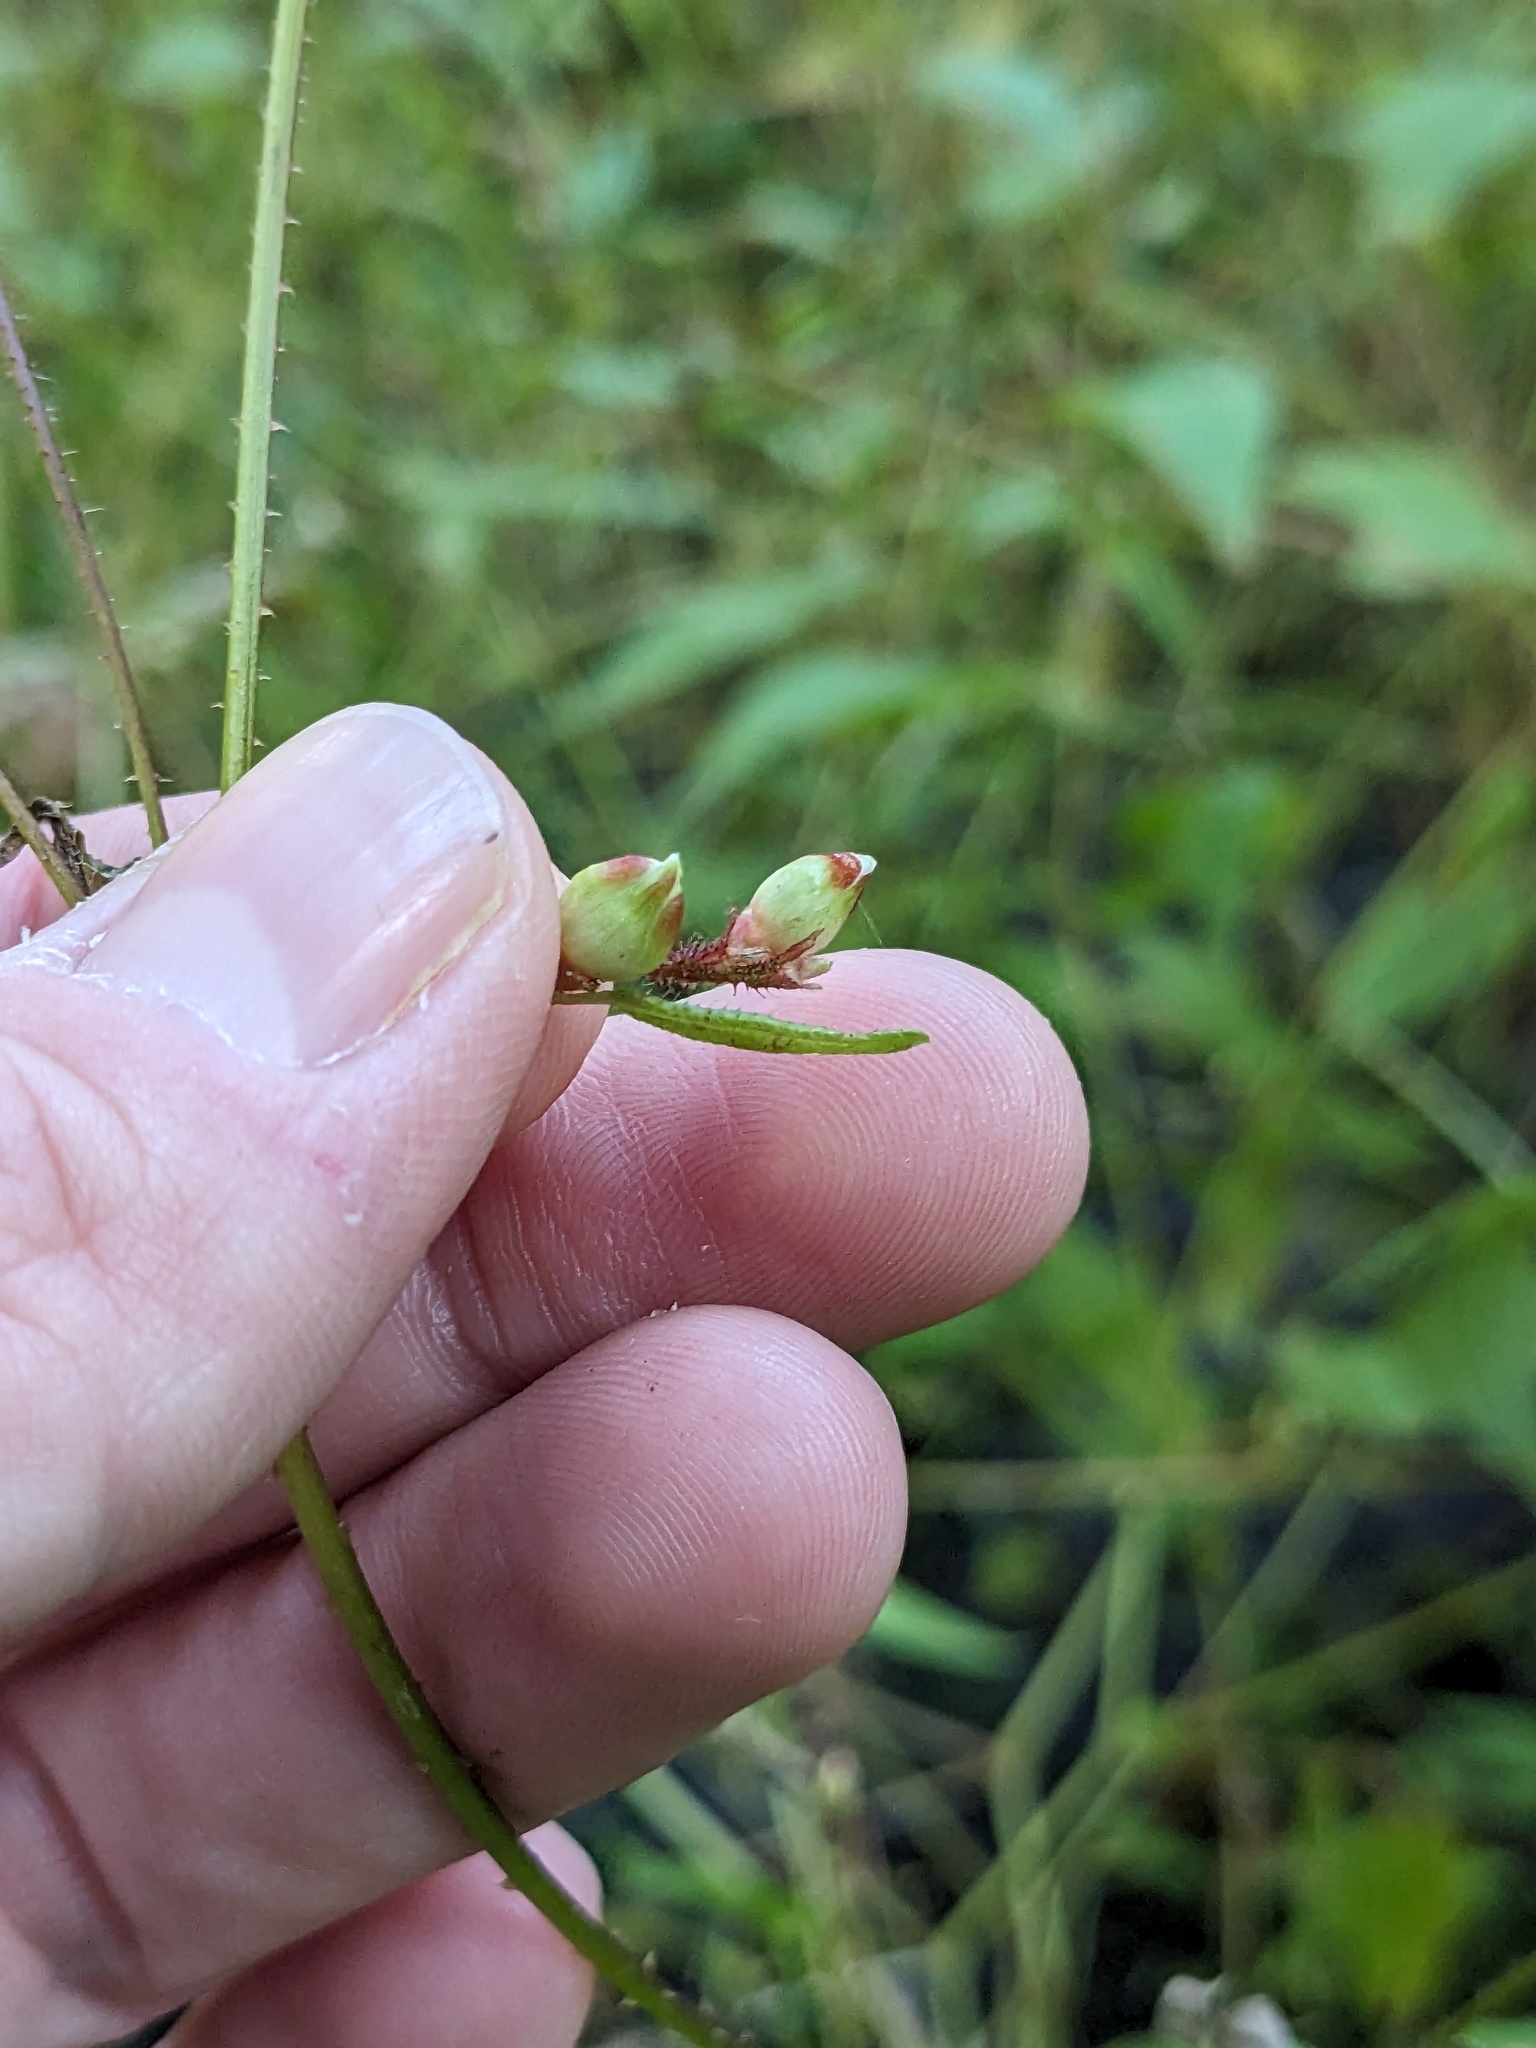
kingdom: Plantae
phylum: Tracheophyta
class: Magnoliopsida
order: Caryophyllales
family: Polygonaceae
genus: Persicaria
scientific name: Persicaria arifolia
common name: Halberd-leaved tear-thumb
